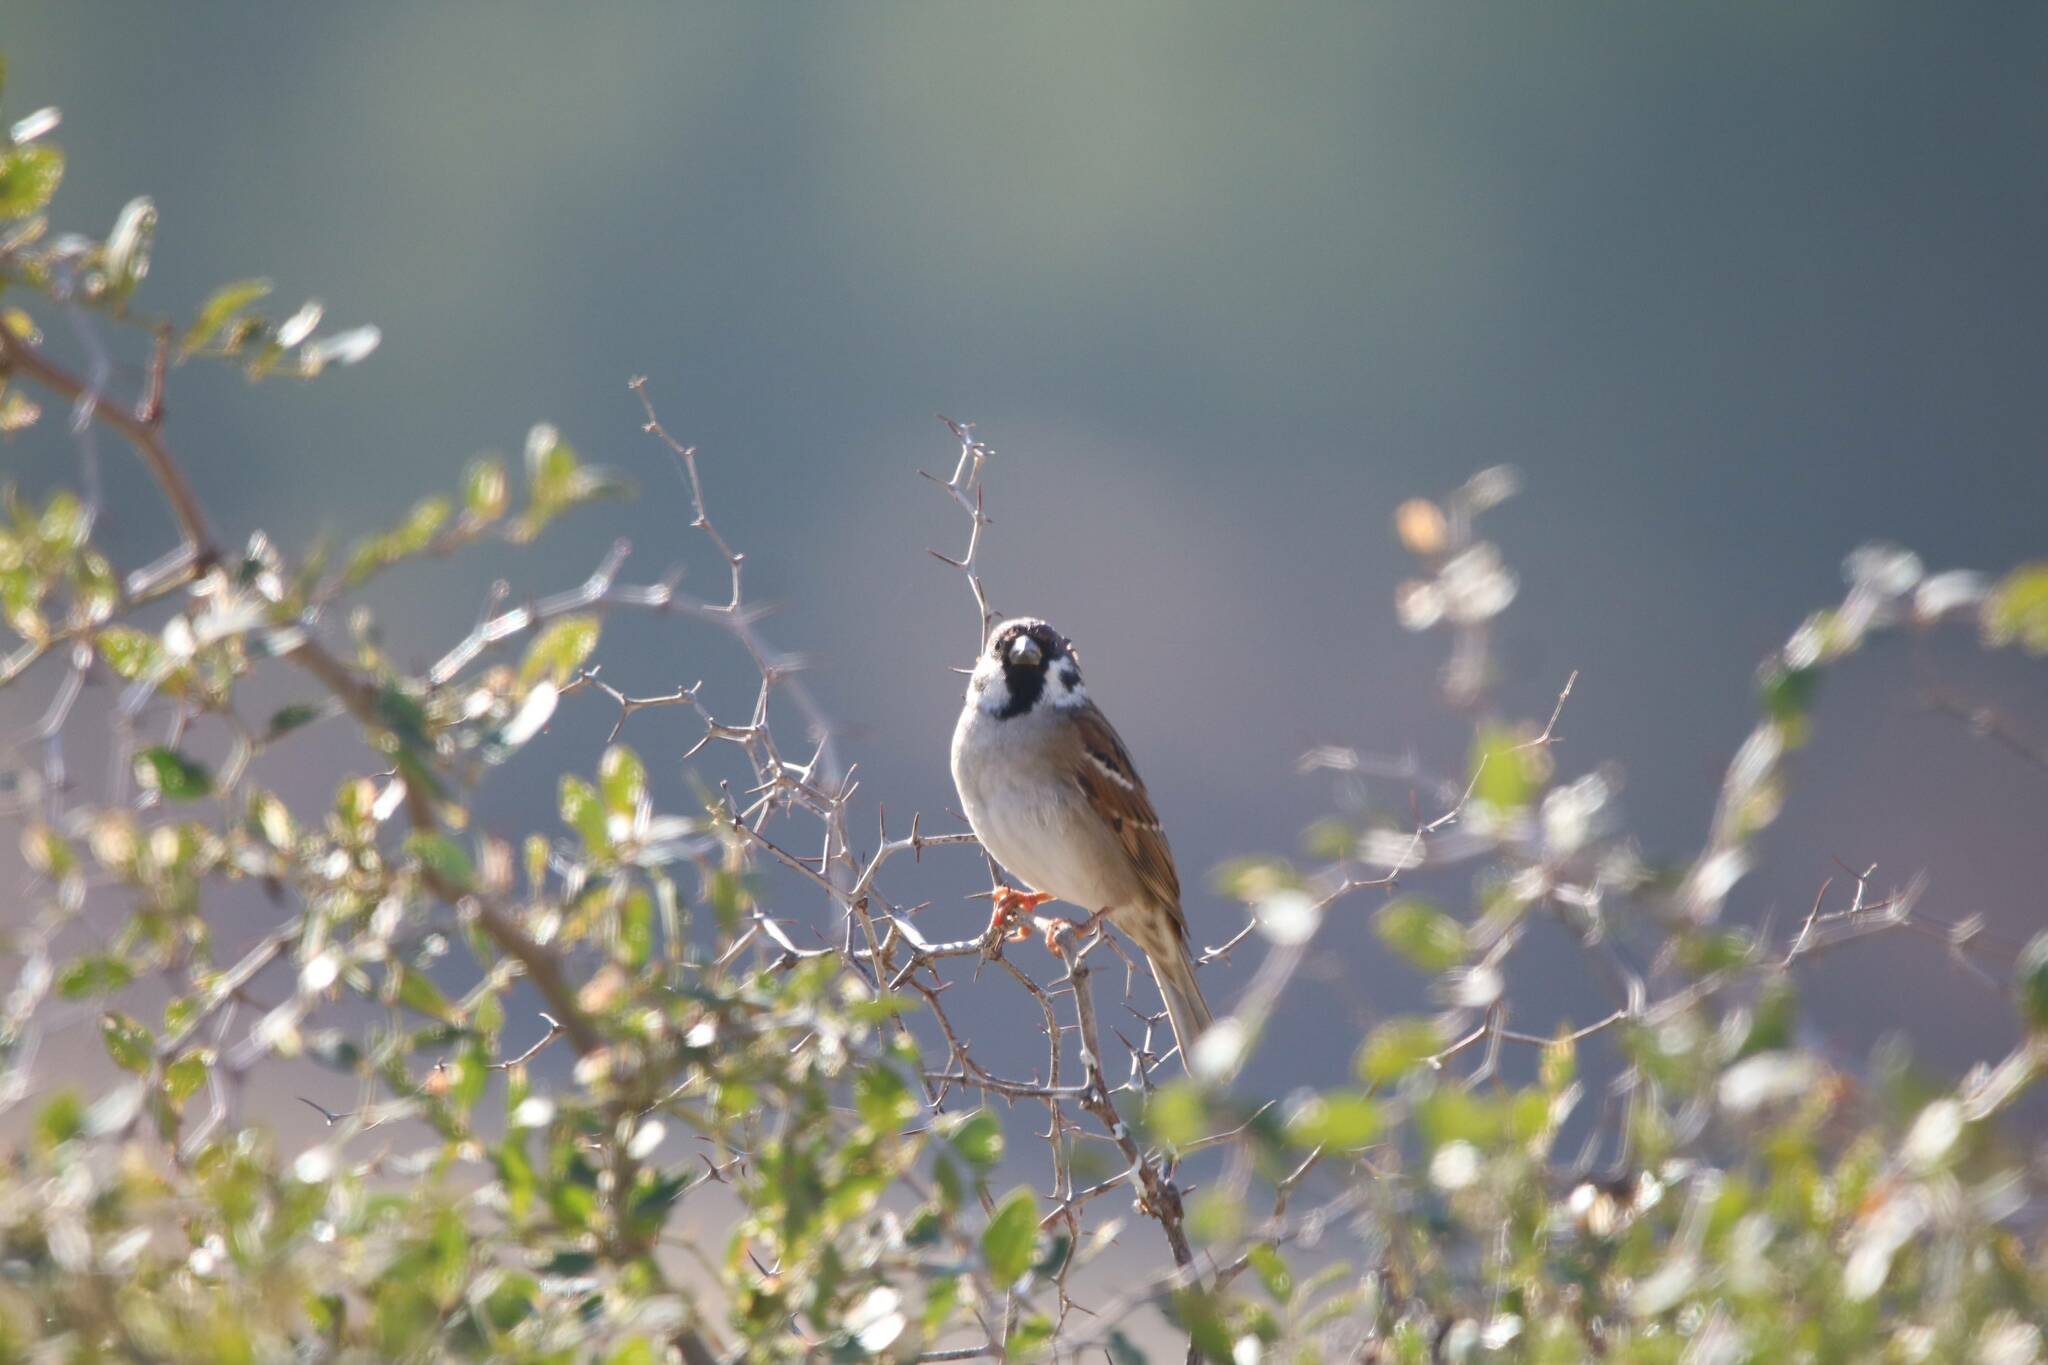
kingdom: Animalia
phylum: Chordata
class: Aves
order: Passeriformes
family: Passeridae
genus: Passer
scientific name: Passer montanus
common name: Eurasian tree sparrow
